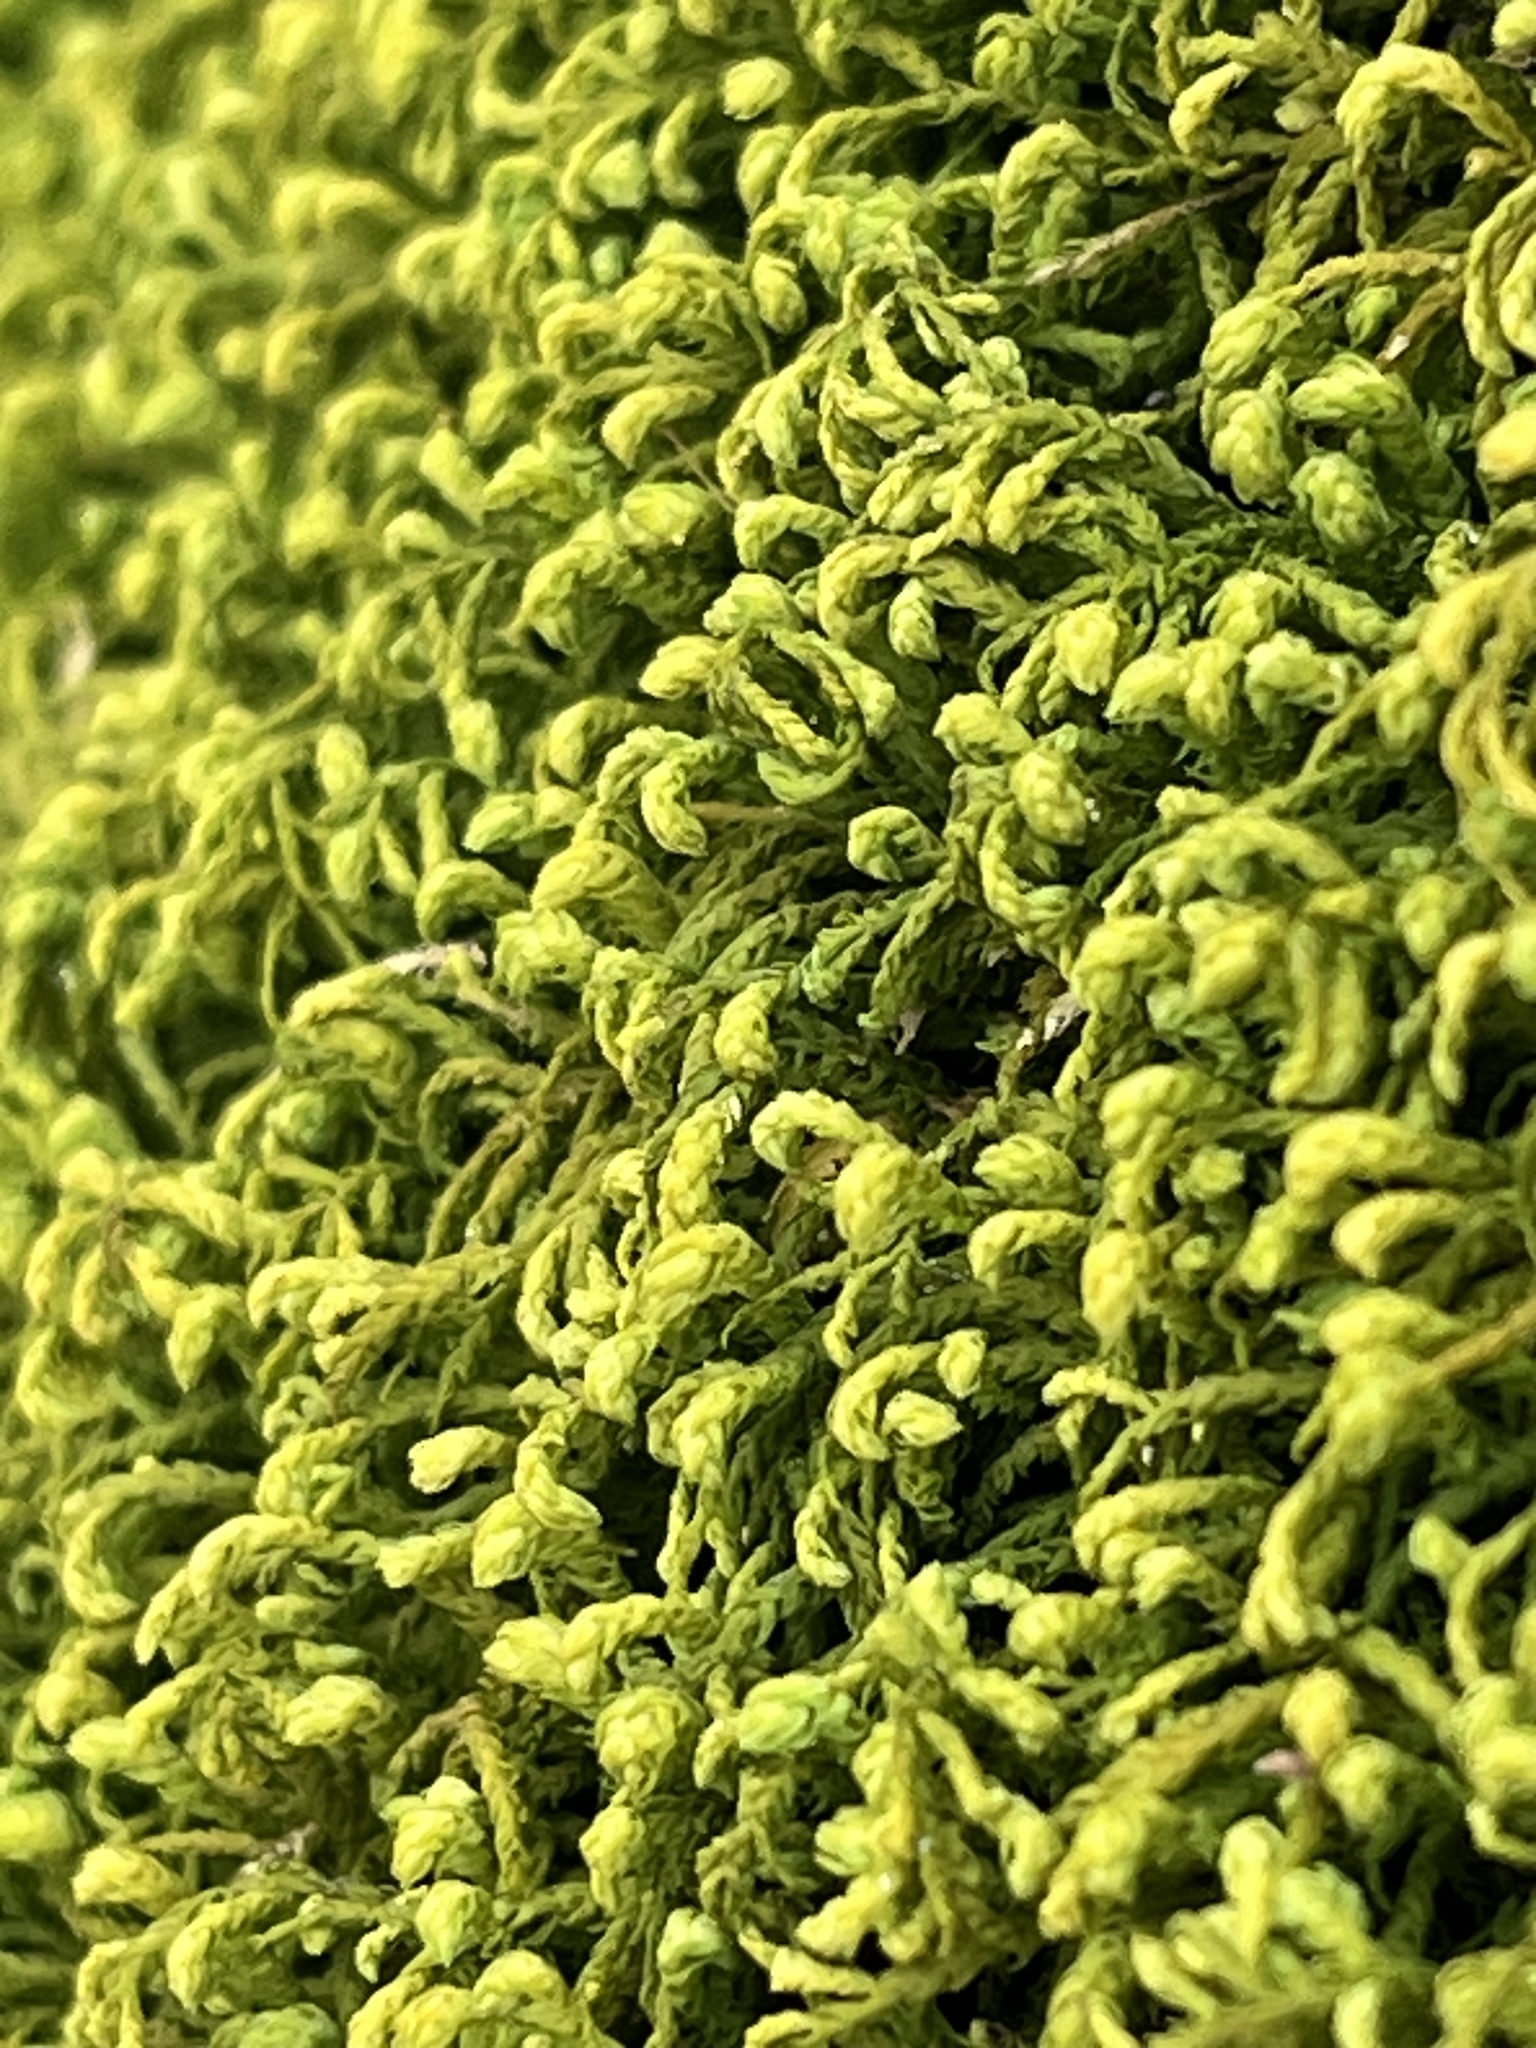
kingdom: Plantae
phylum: Bryophyta
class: Bryopsida
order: Hypnales
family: Neckeraceae
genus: Pseudanomodon
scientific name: Pseudanomodon attenuatus
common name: Tree-skirt moss
